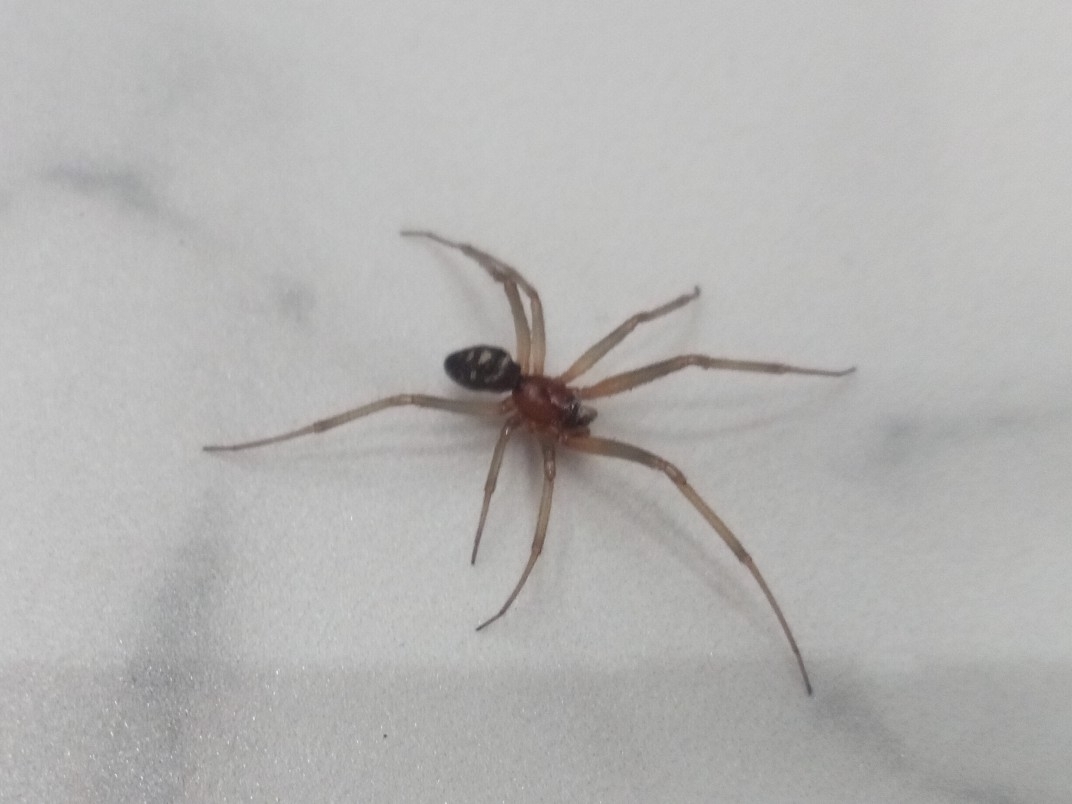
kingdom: Animalia
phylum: Arthropoda
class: Arachnida
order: Araneae
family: Theridiidae
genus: Steatoda
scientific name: Steatoda grossa
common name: False black widow
